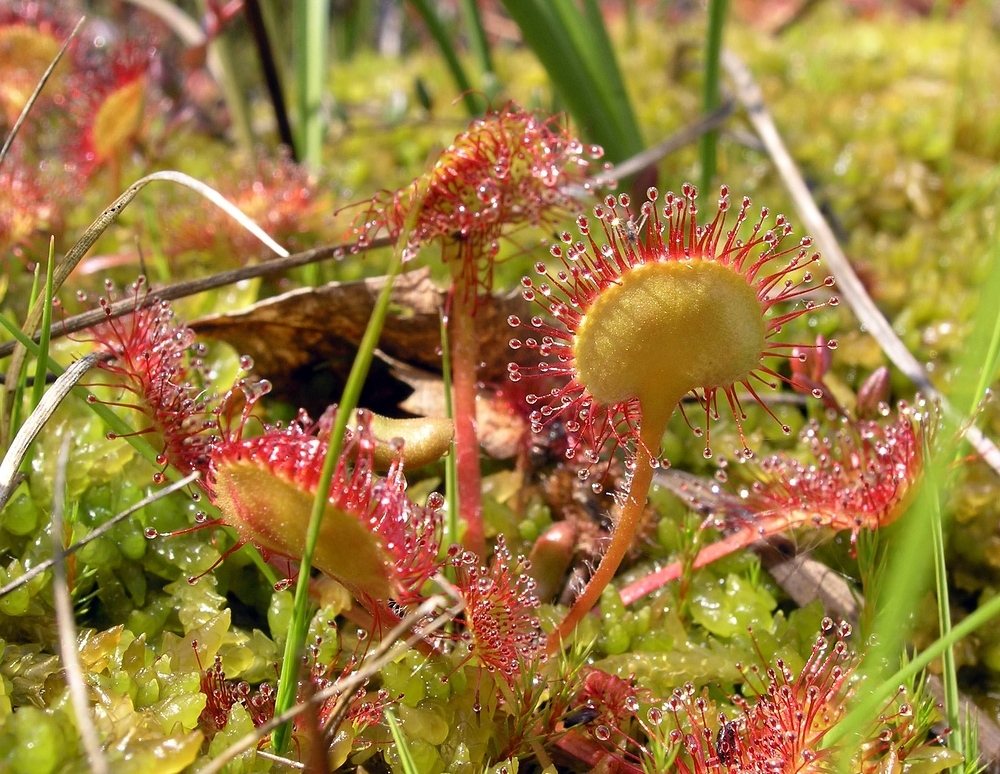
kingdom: Plantae
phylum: Tracheophyta
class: Magnoliopsida
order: Caryophyllales
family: Droseraceae
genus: Drosera
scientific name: Drosera rotundifolia
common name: Round-leaved sundew
